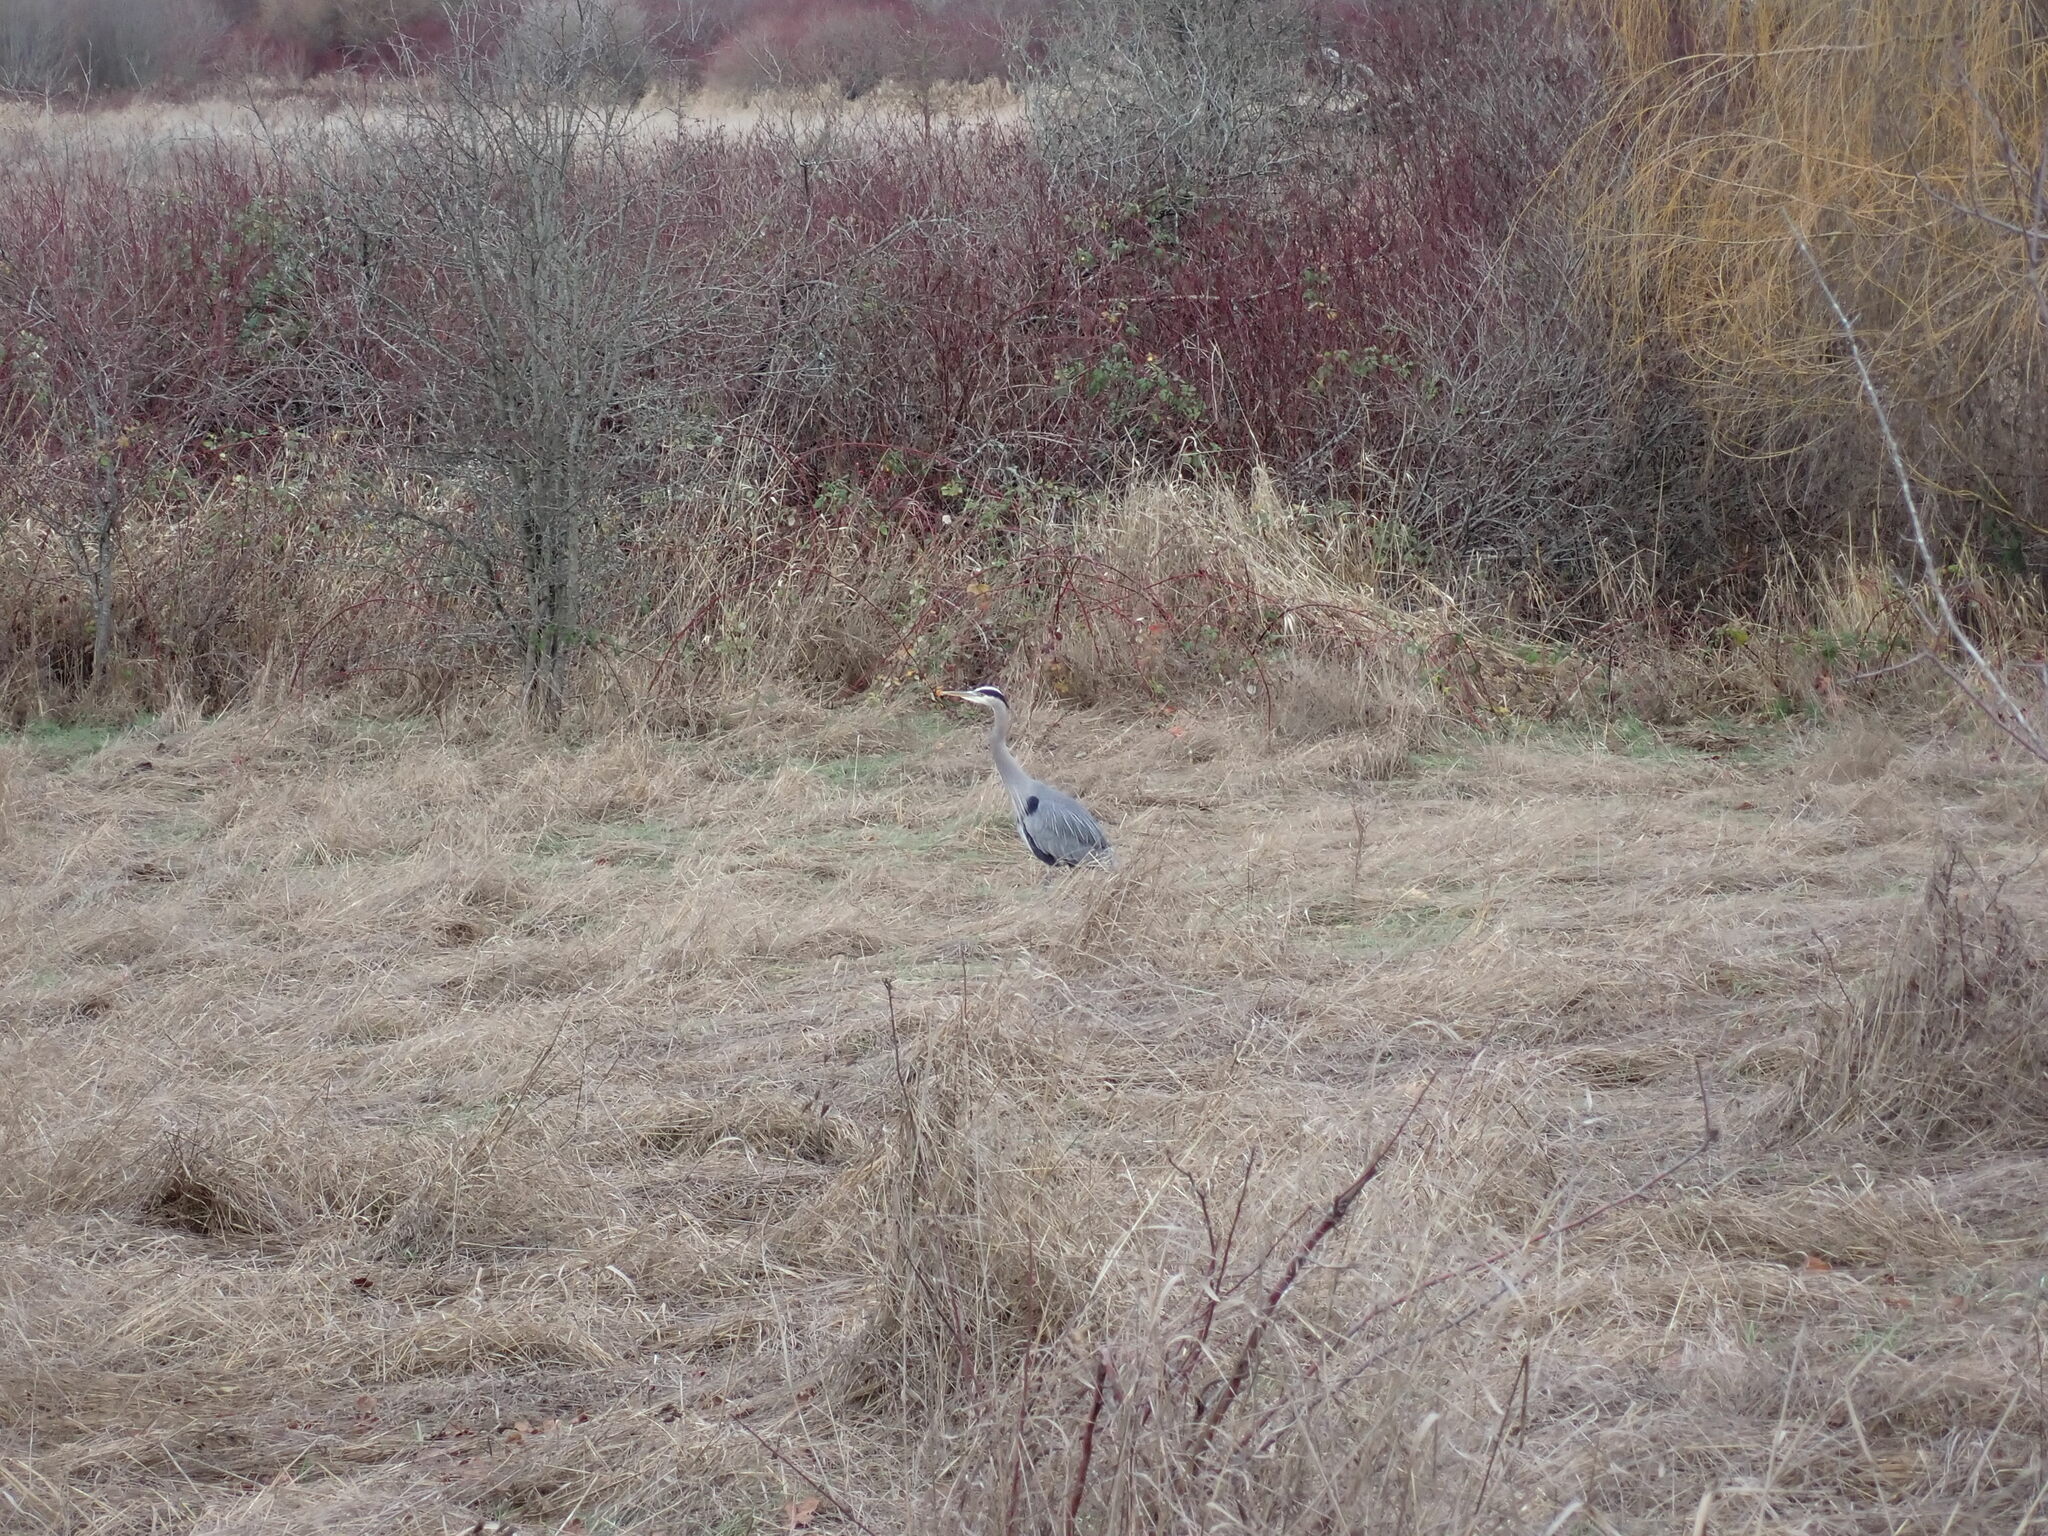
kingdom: Animalia
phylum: Chordata
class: Aves
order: Pelecaniformes
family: Ardeidae
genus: Ardea
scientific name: Ardea herodias
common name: Great blue heron
